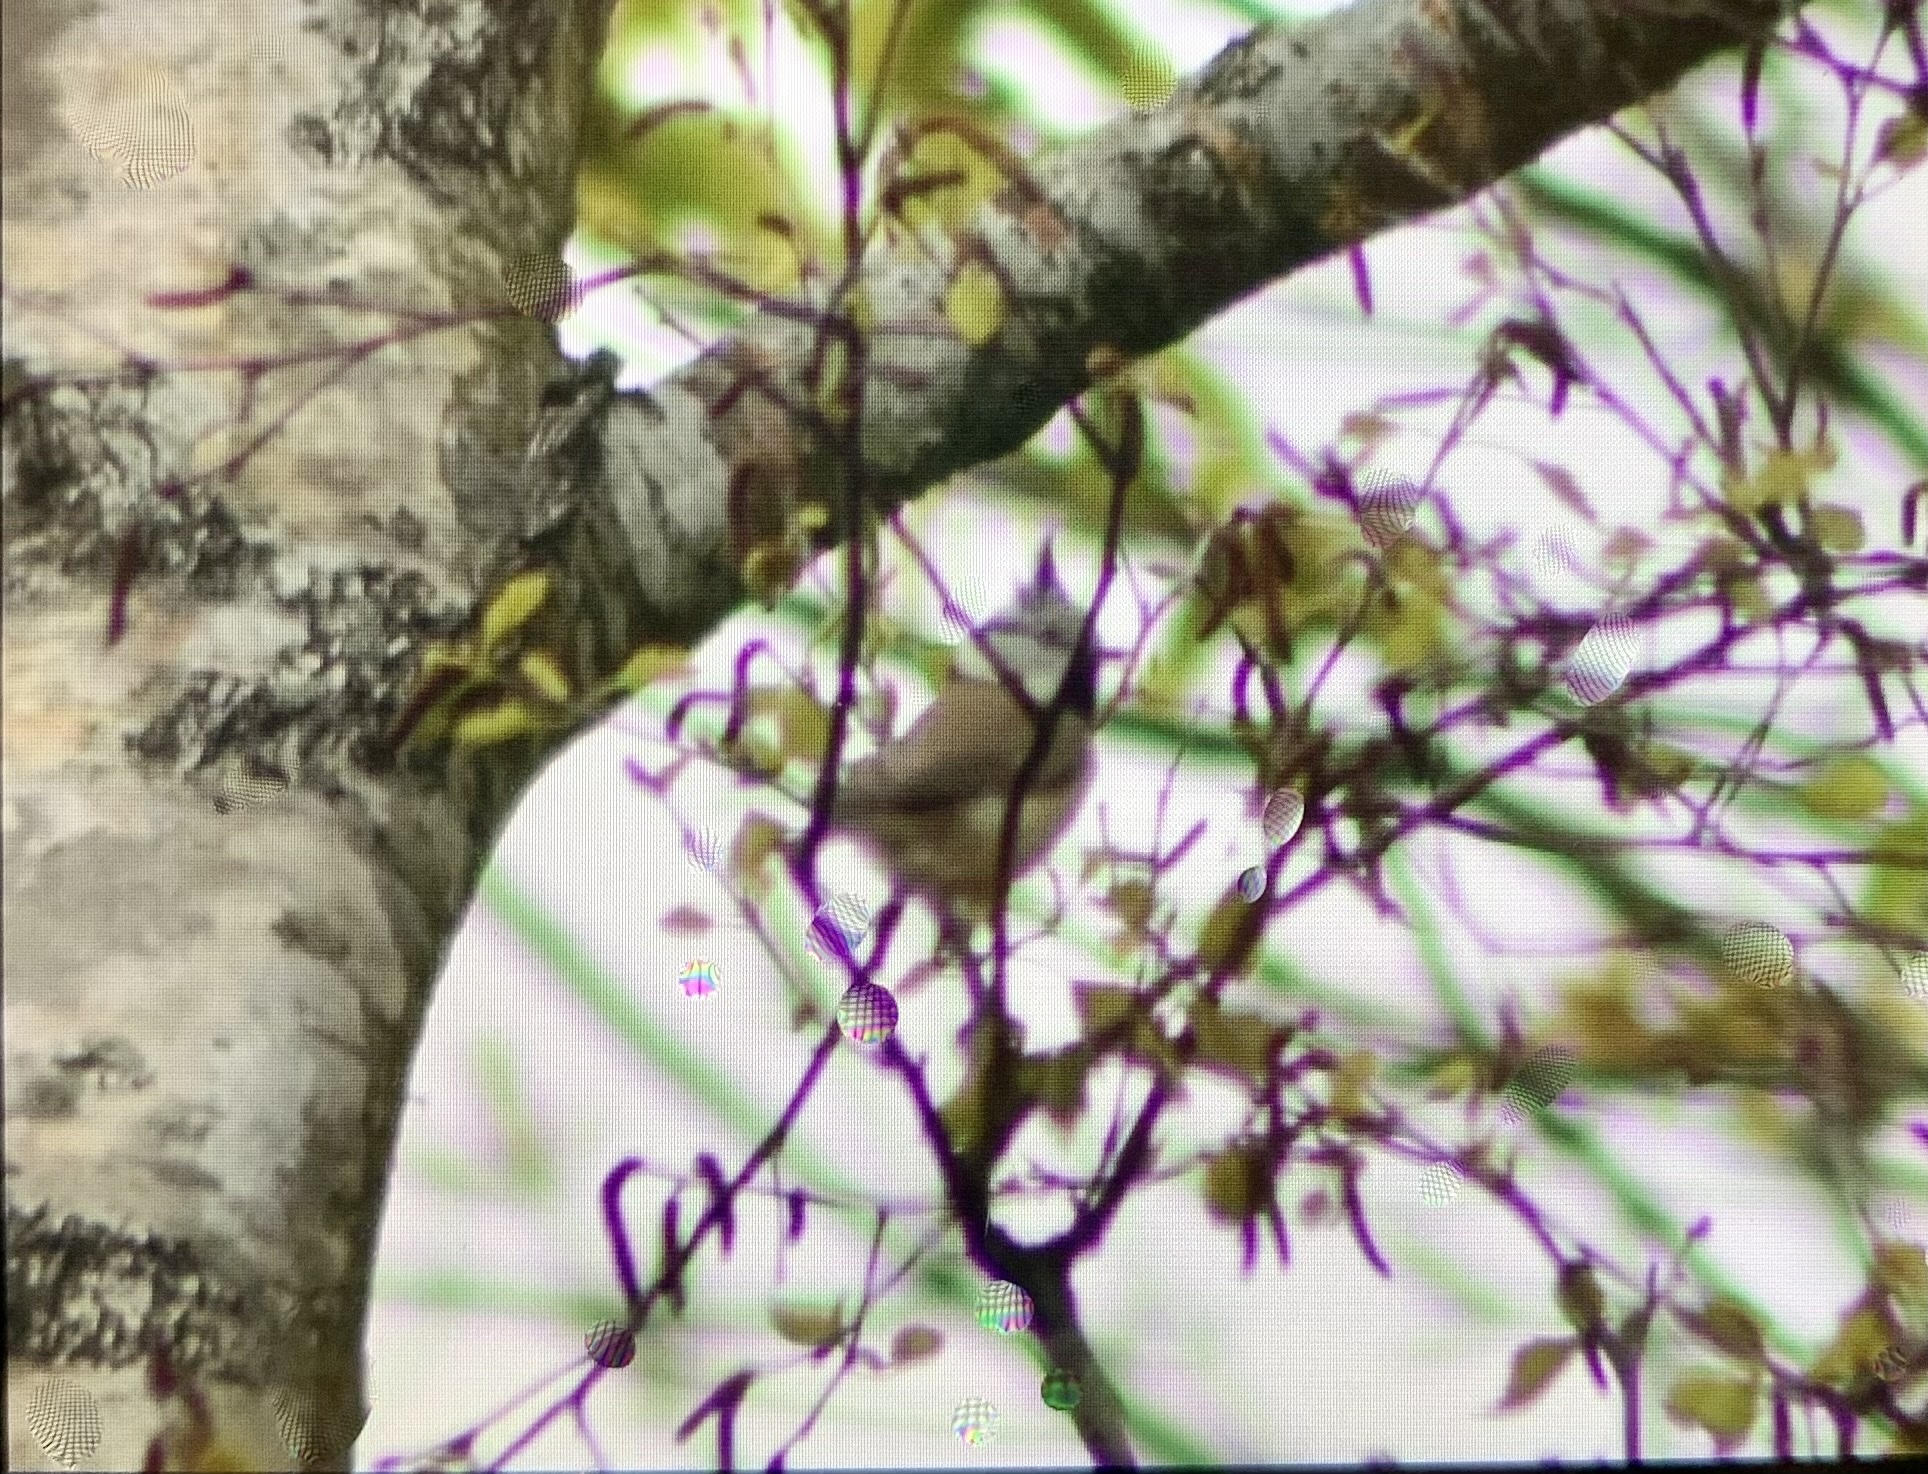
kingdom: Animalia
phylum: Chordata
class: Aves
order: Passeriformes
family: Paridae
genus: Lophophanes
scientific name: Lophophanes cristatus
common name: European crested tit
